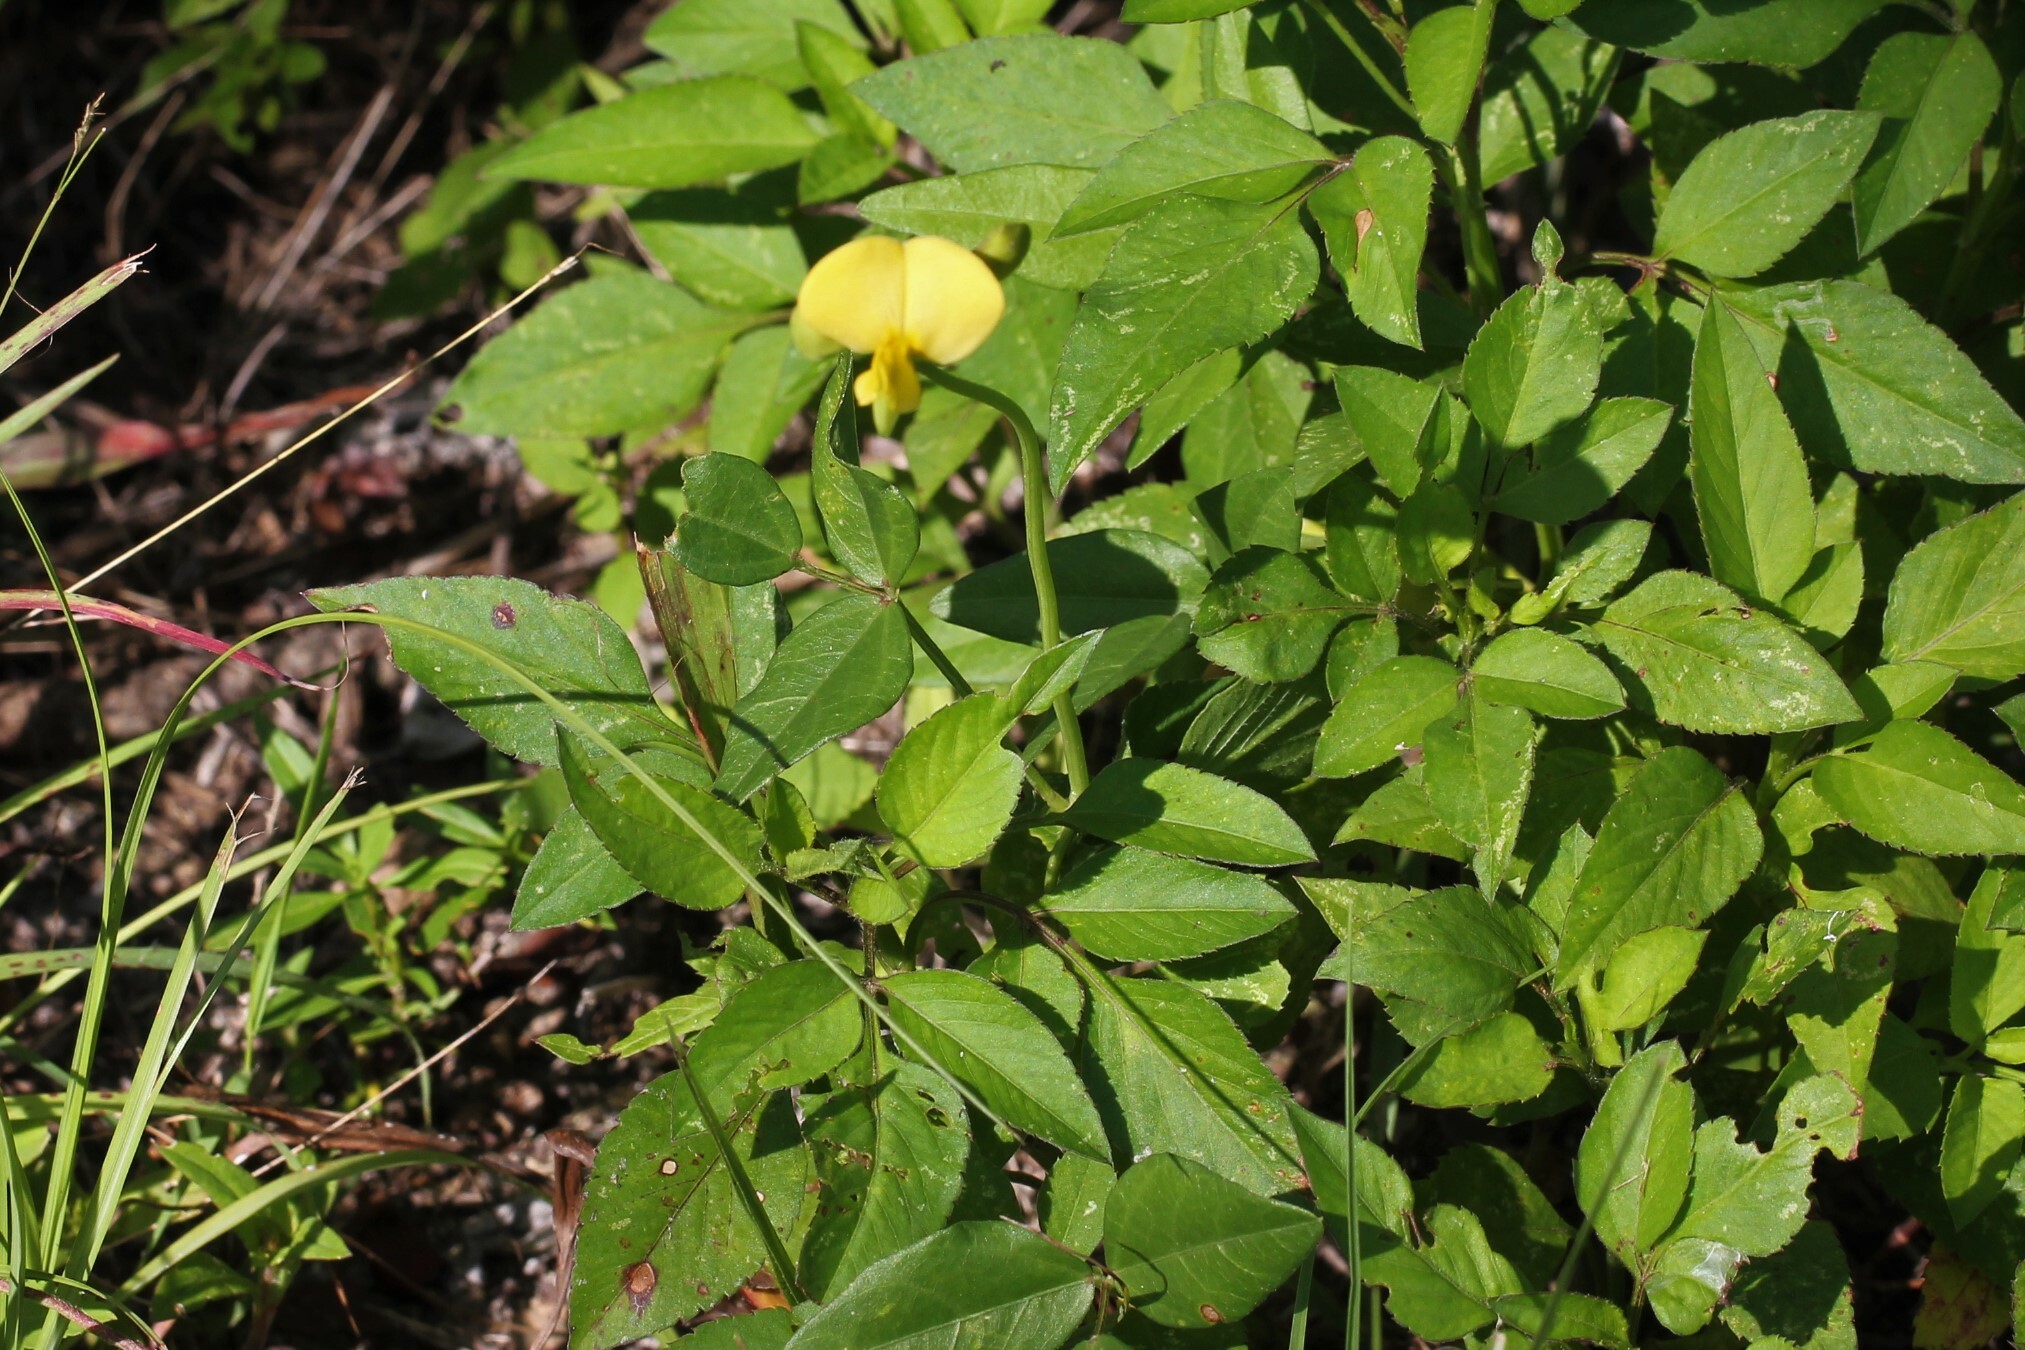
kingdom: Plantae
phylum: Tracheophyta
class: Magnoliopsida
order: Fabales
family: Fabaceae
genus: Vigna
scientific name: Vigna luteola
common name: Hairypod cowpea
